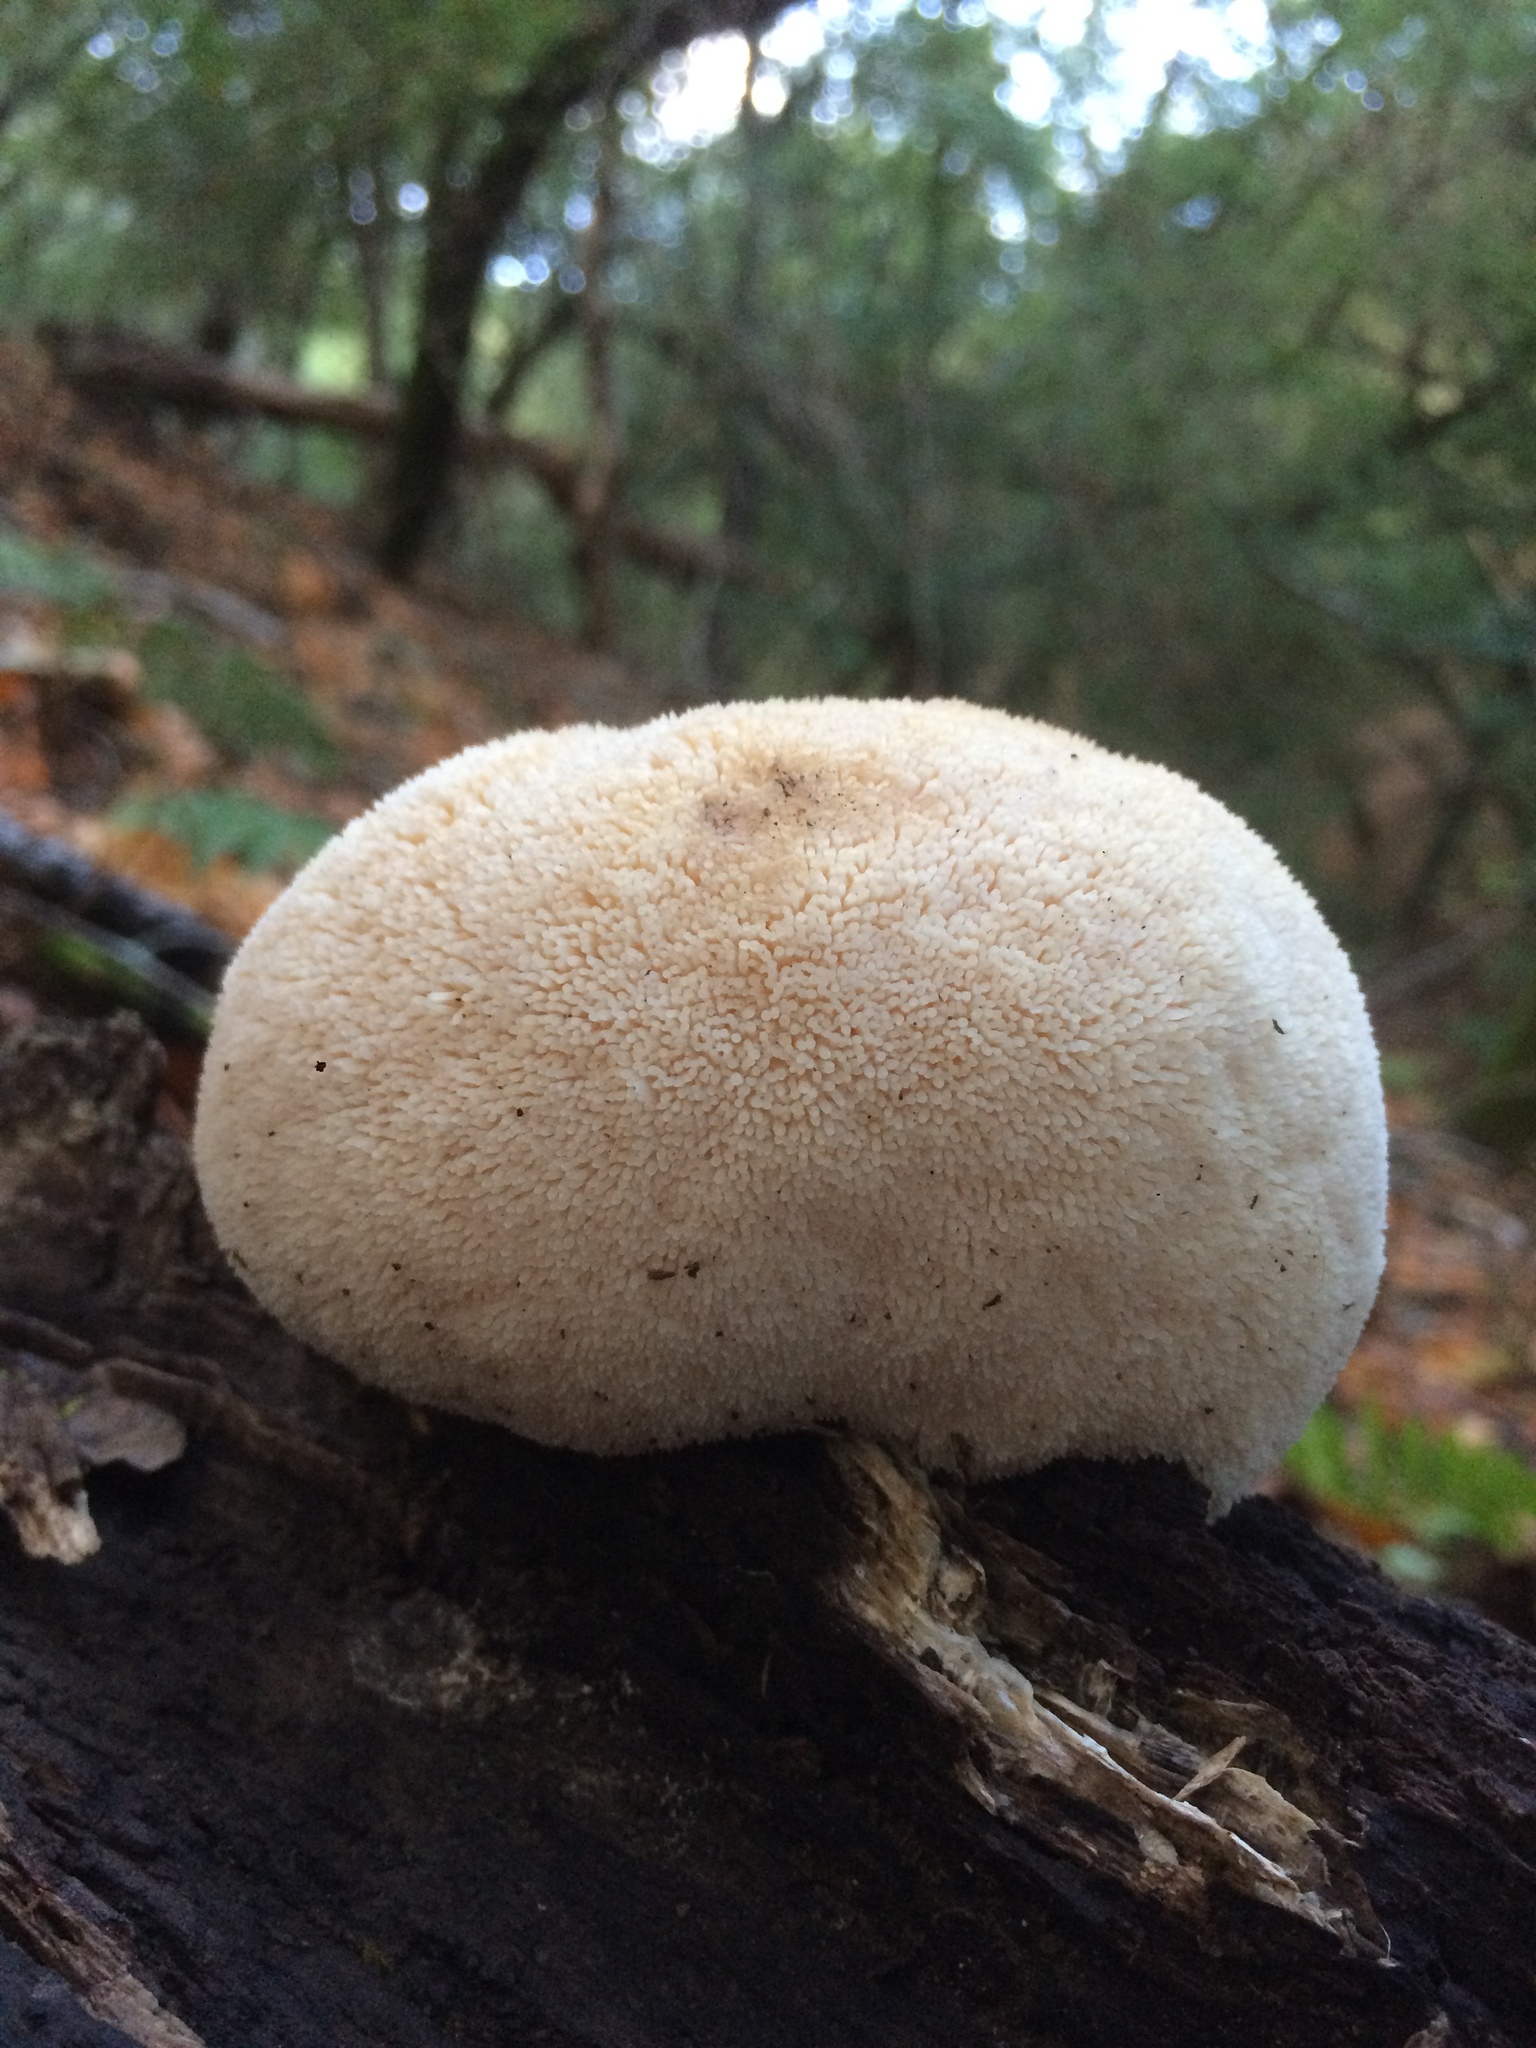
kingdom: Fungi
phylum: Basidiomycota
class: Agaricomycetes
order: Russulales
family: Hericiaceae
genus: Hericium
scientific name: Hericium erinaceus
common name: Bearded tooth
